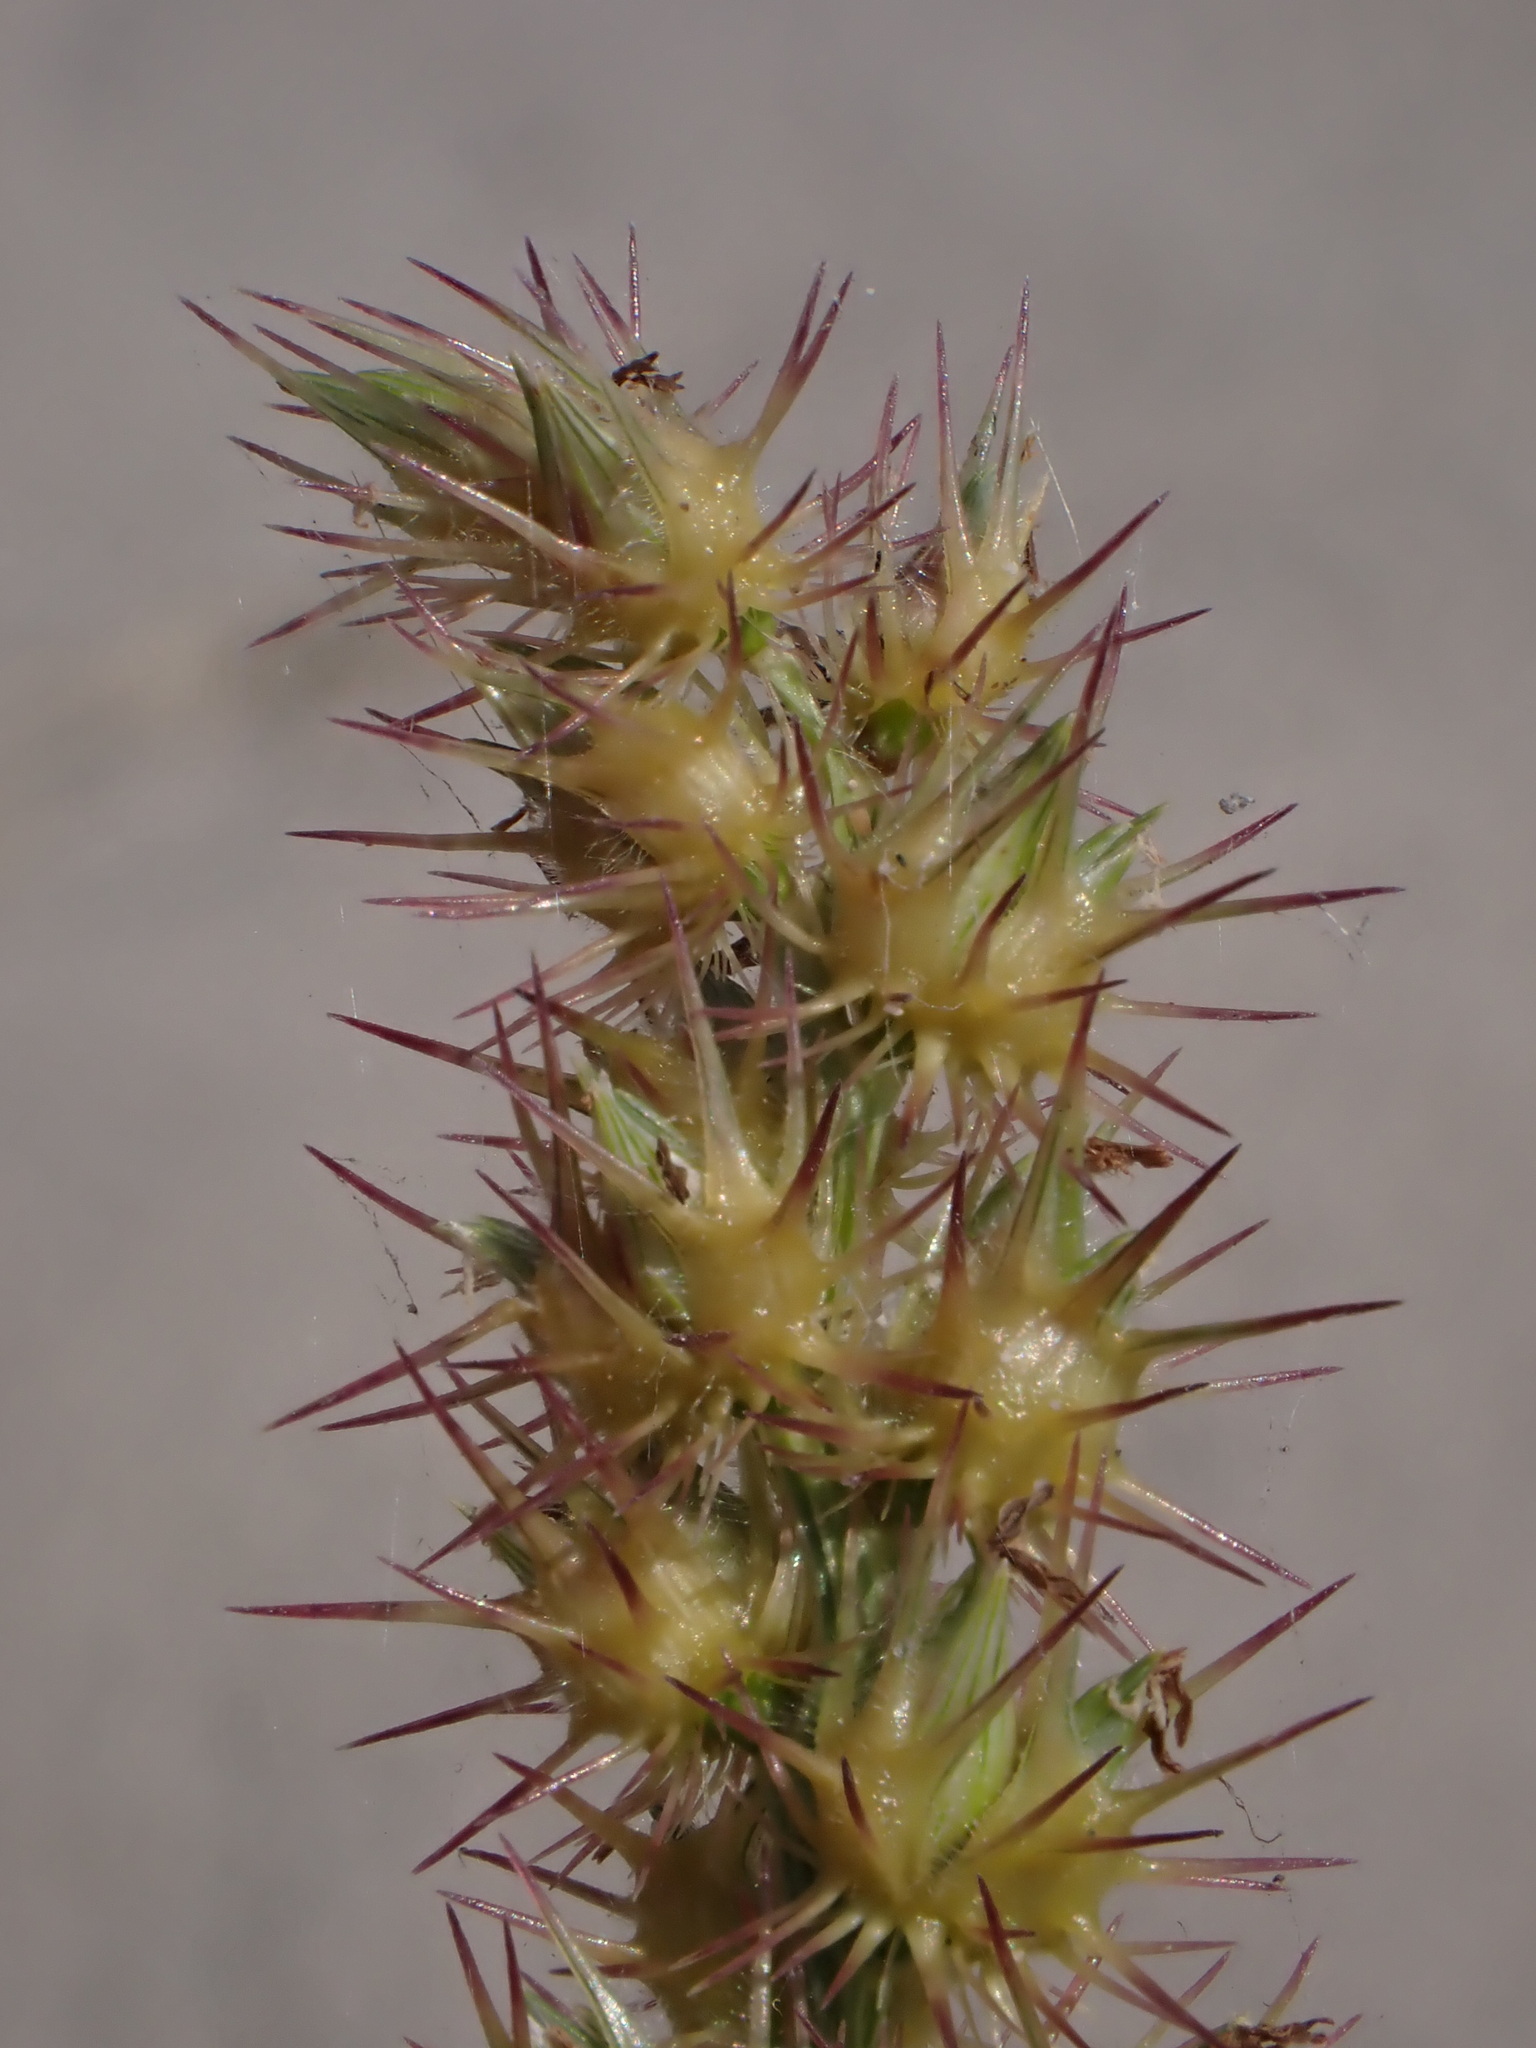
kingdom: Plantae
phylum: Tracheophyta
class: Liliopsida
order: Poales
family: Poaceae
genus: Cenchrus
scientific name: Cenchrus longispinus
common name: Mat sandbur
